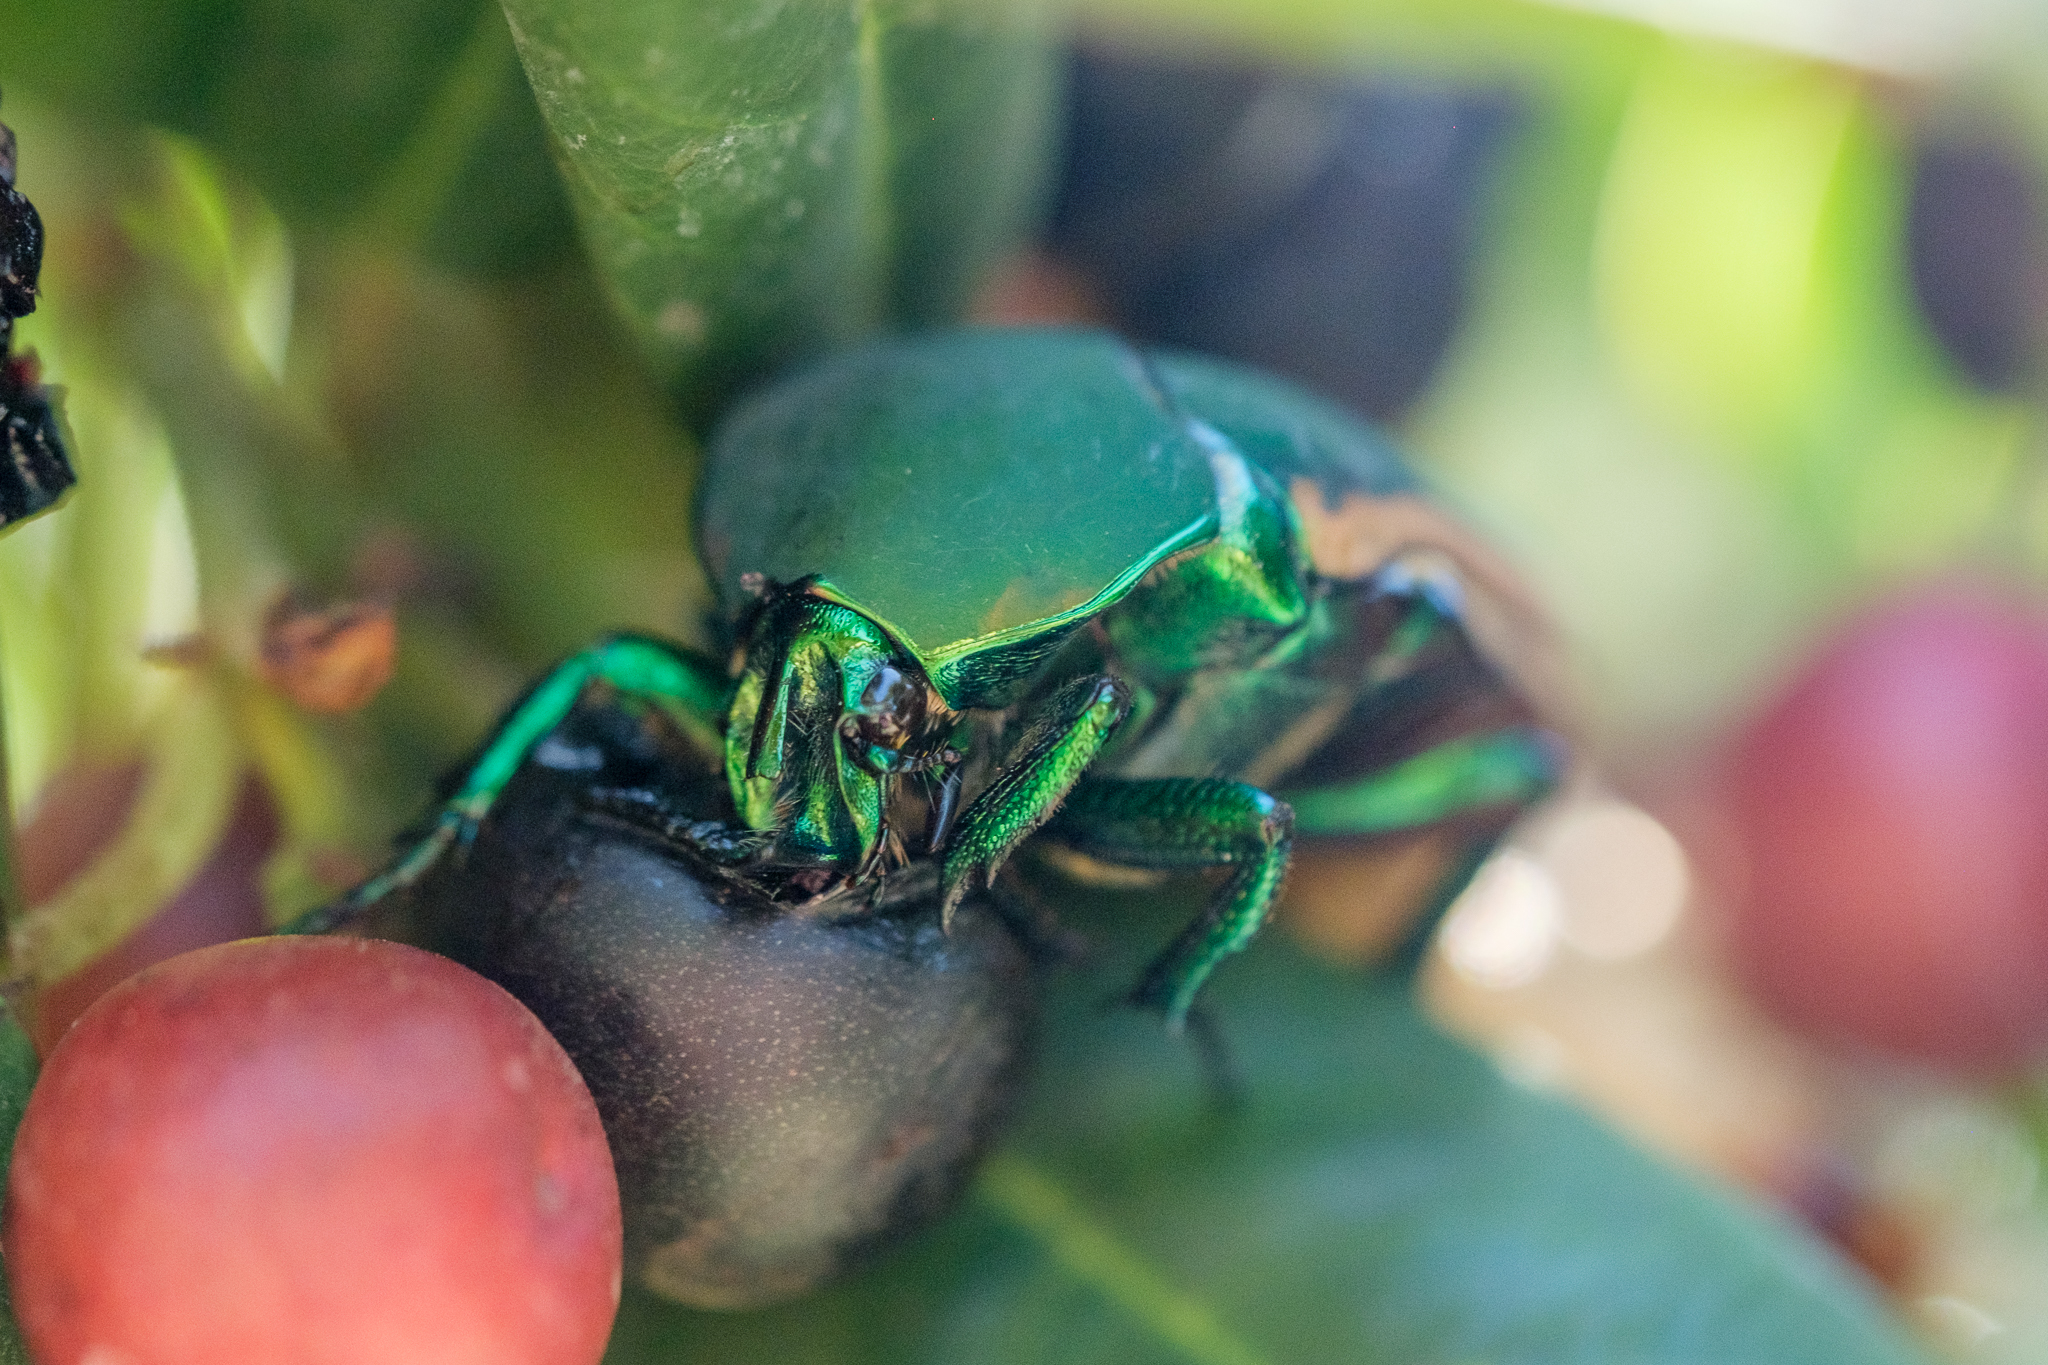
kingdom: Animalia
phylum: Arthropoda
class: Insecta
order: Coleoptera
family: Scarabaeidae
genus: Cotinis
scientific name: Cotinis mutabilis
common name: Figeater beetle
